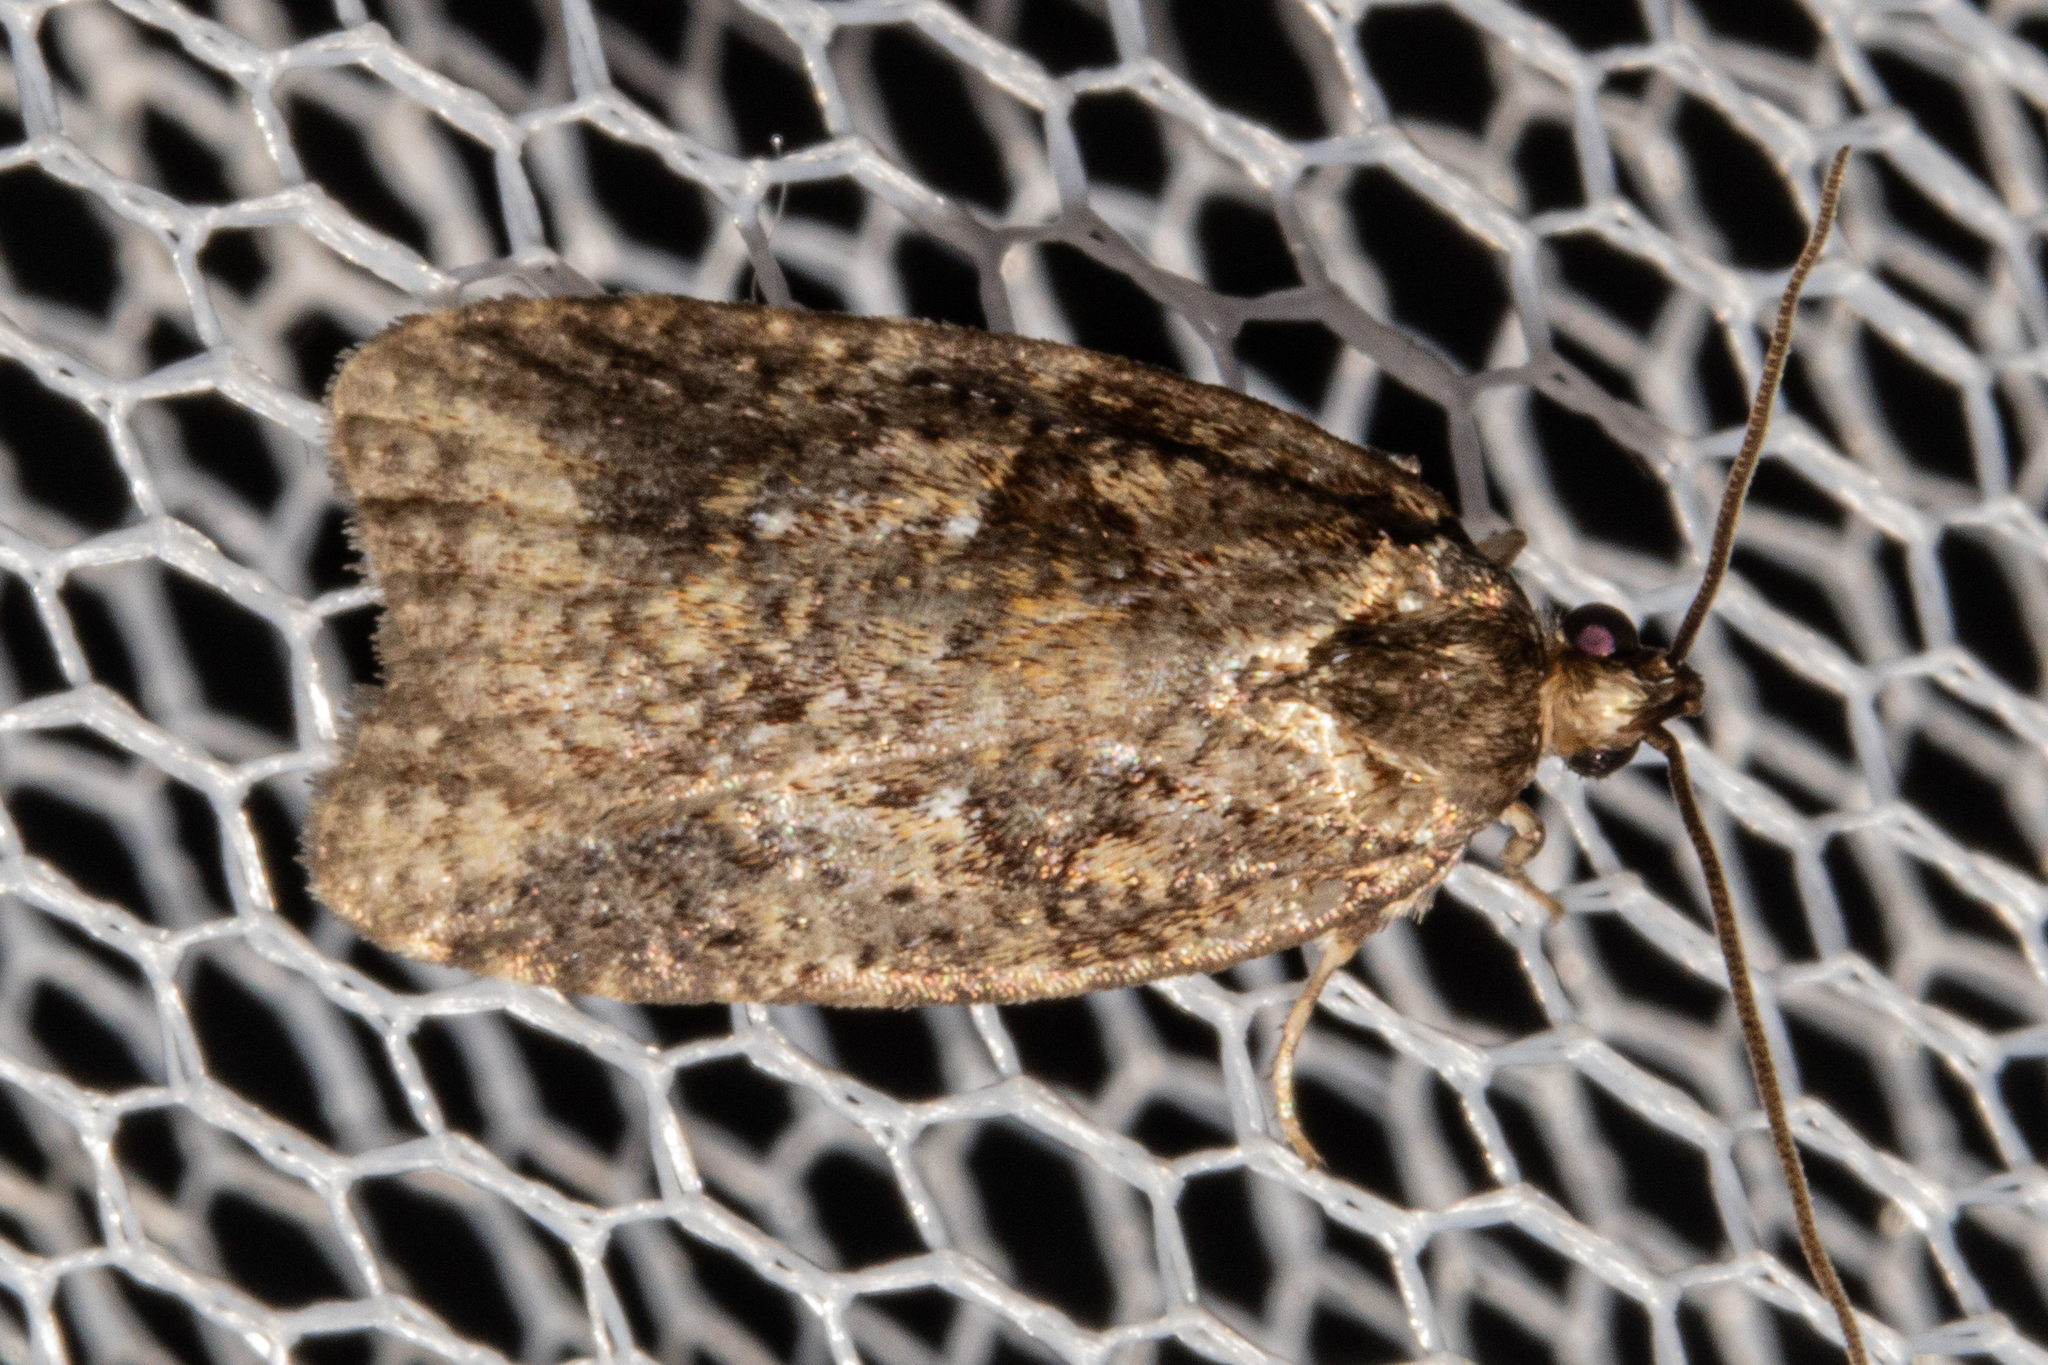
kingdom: Animalia
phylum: Arthropoda
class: Insecta
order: Lepidoptera
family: Oecophoridae
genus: Proteodes
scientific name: Proteodes profunda
